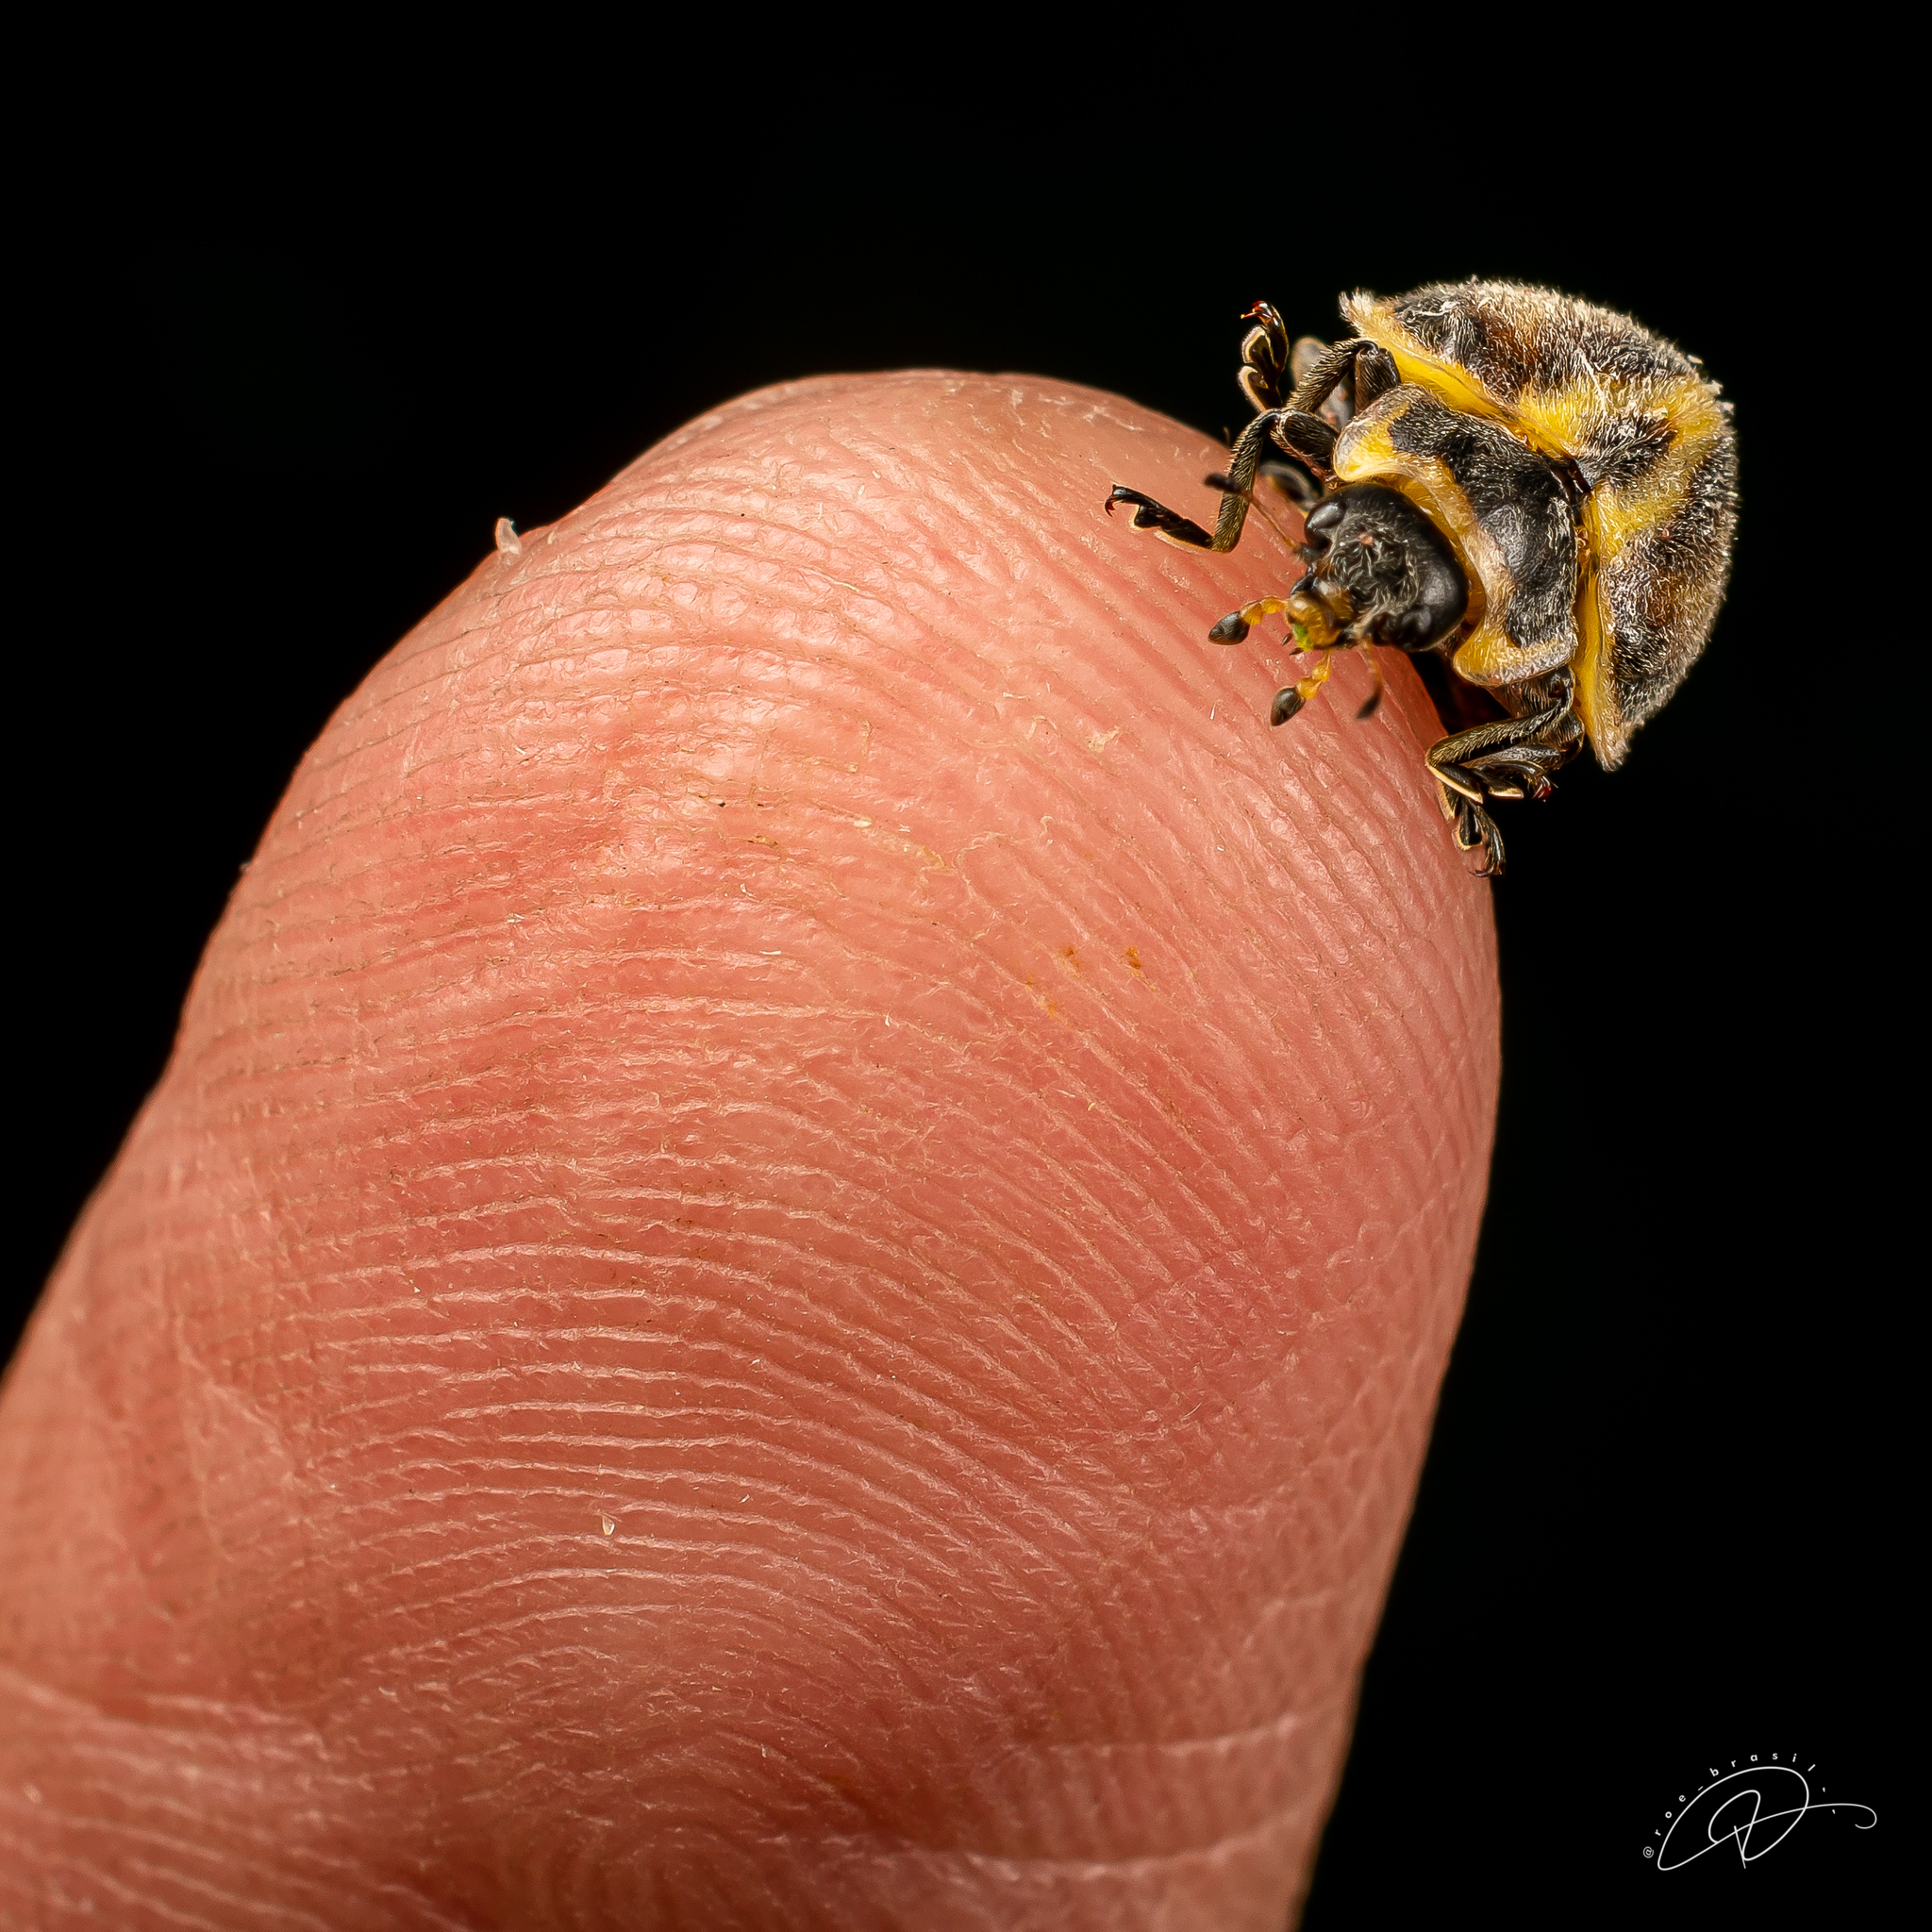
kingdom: Animalia
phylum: Arthropoda
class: Insecta
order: Coleoptera
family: Coccinellidae
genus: Epilachna
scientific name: Epilachna
